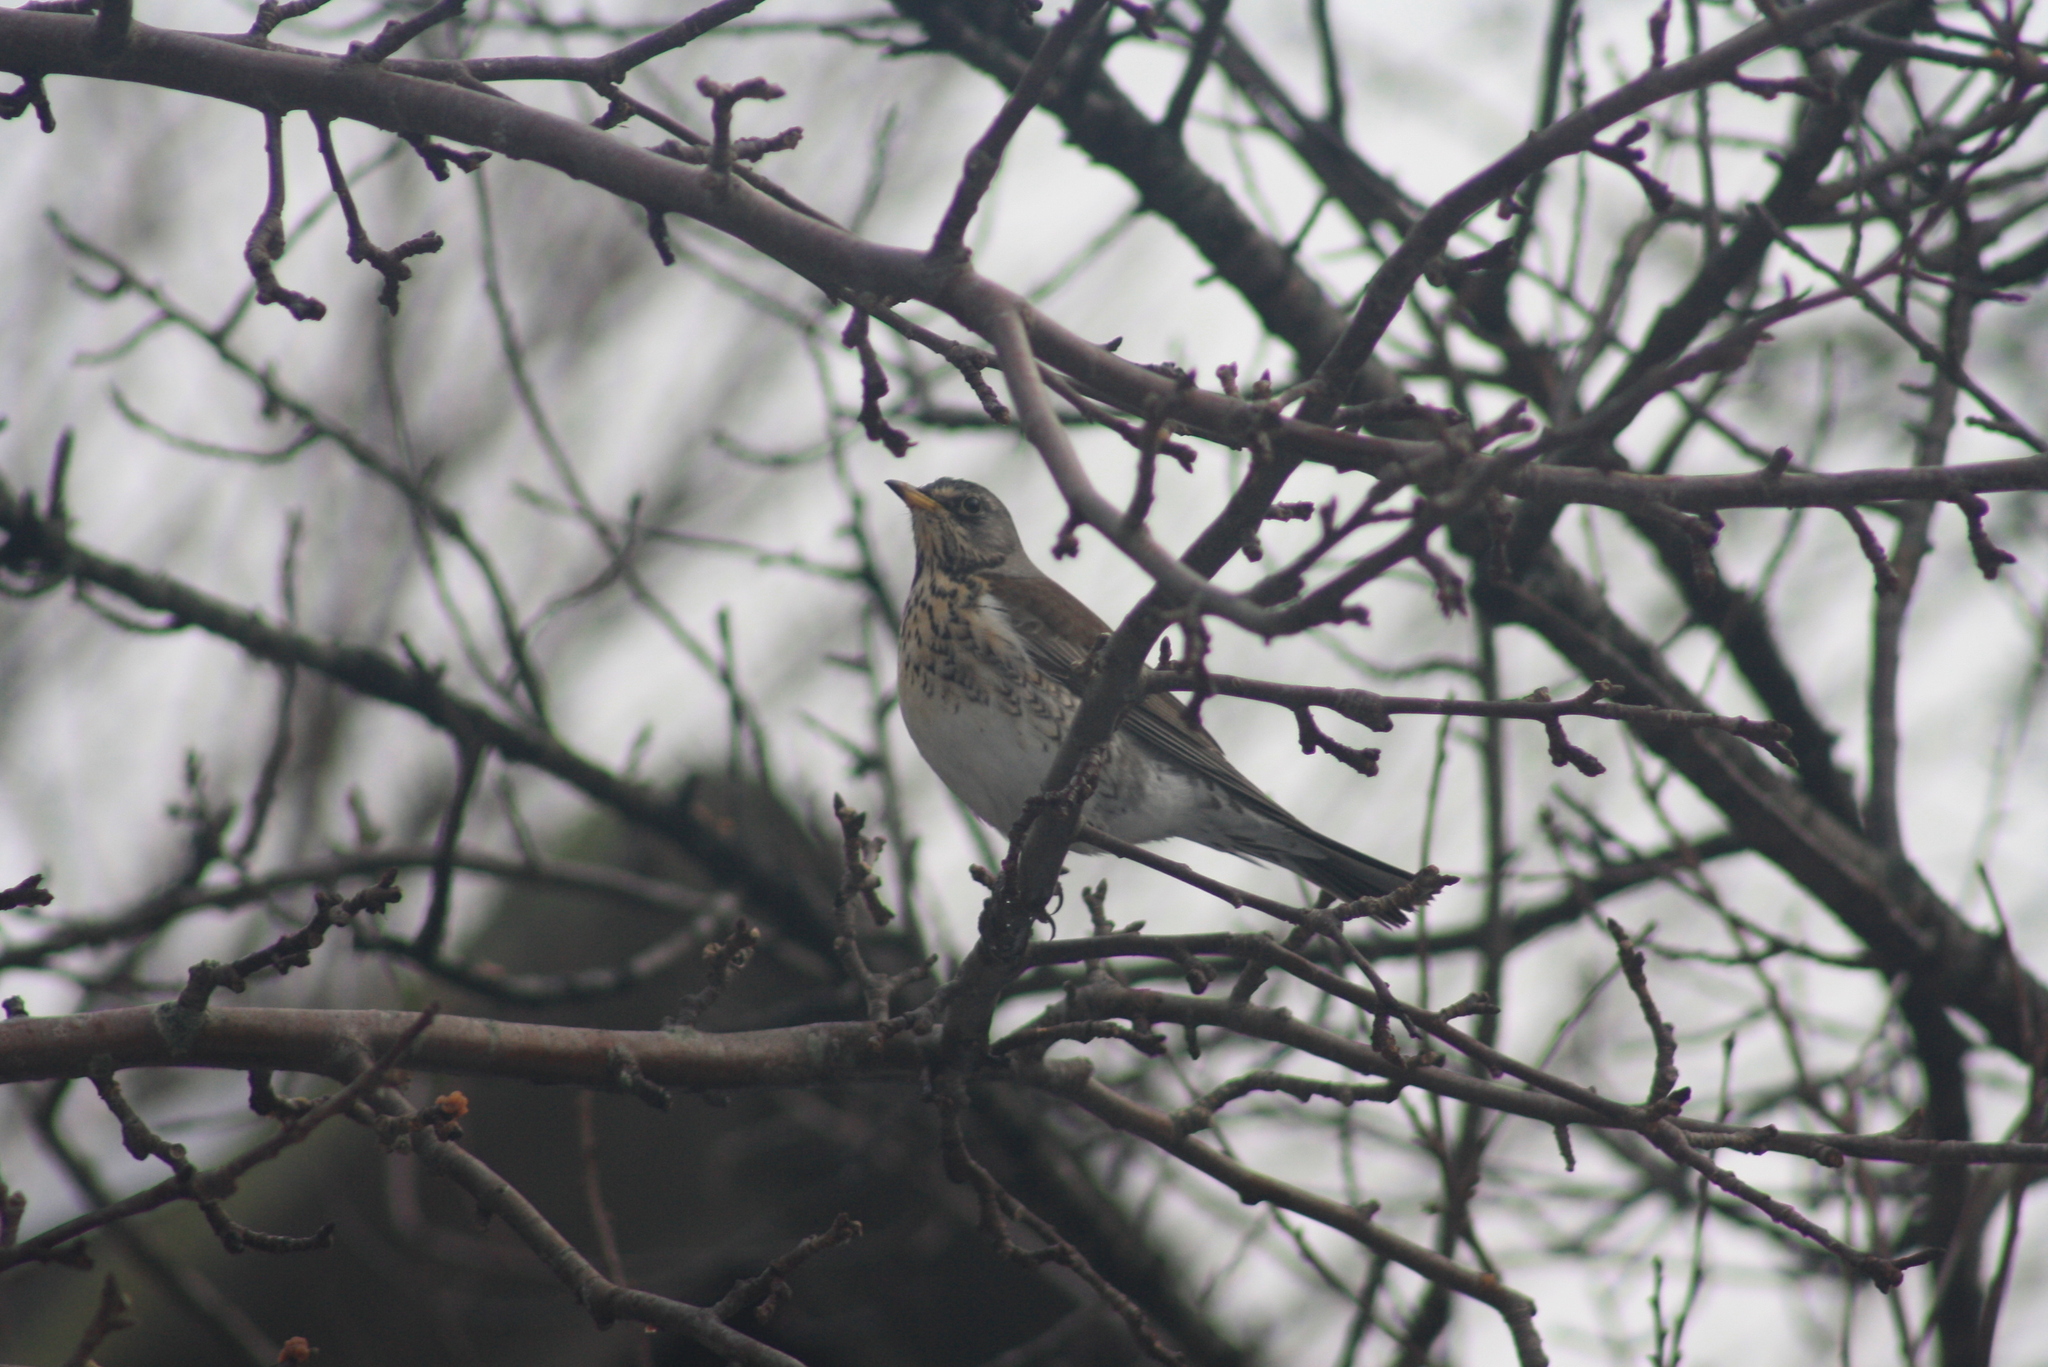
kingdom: Animalia
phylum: Chordata
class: Aves
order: Passeriformes
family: Turdidae
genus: Turdus
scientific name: Turdus pilaris
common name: Fieldfare
